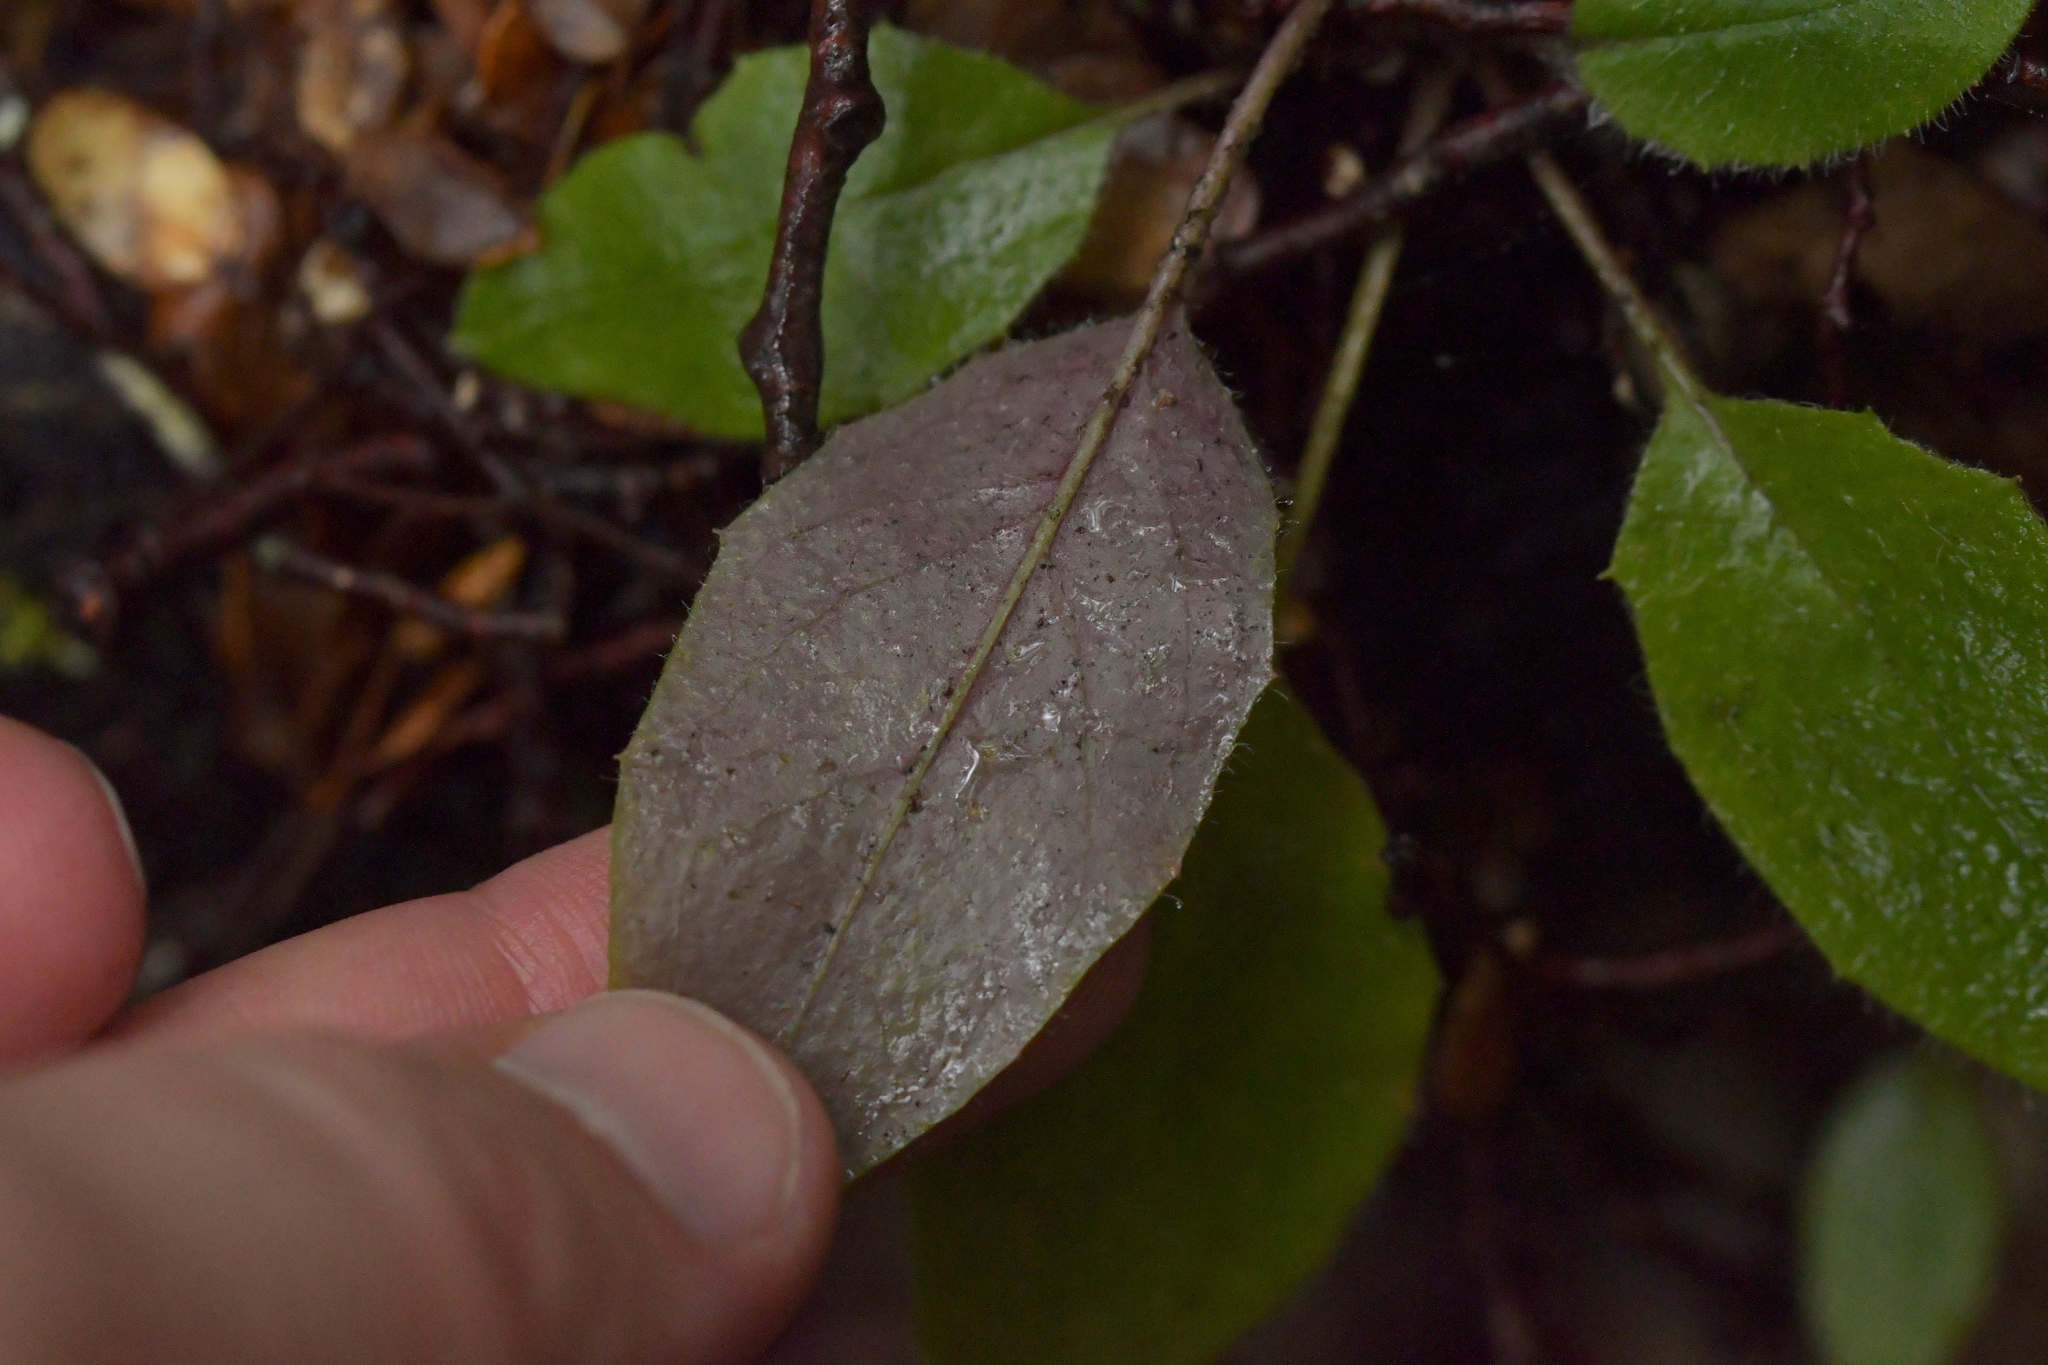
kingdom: Plantae
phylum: Tracheophyta
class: Magnoliopsida
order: Asterales
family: Asteraceae
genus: Hieracium
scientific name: Hieracium lepidulum
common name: Irregular-toothed hawkweed
